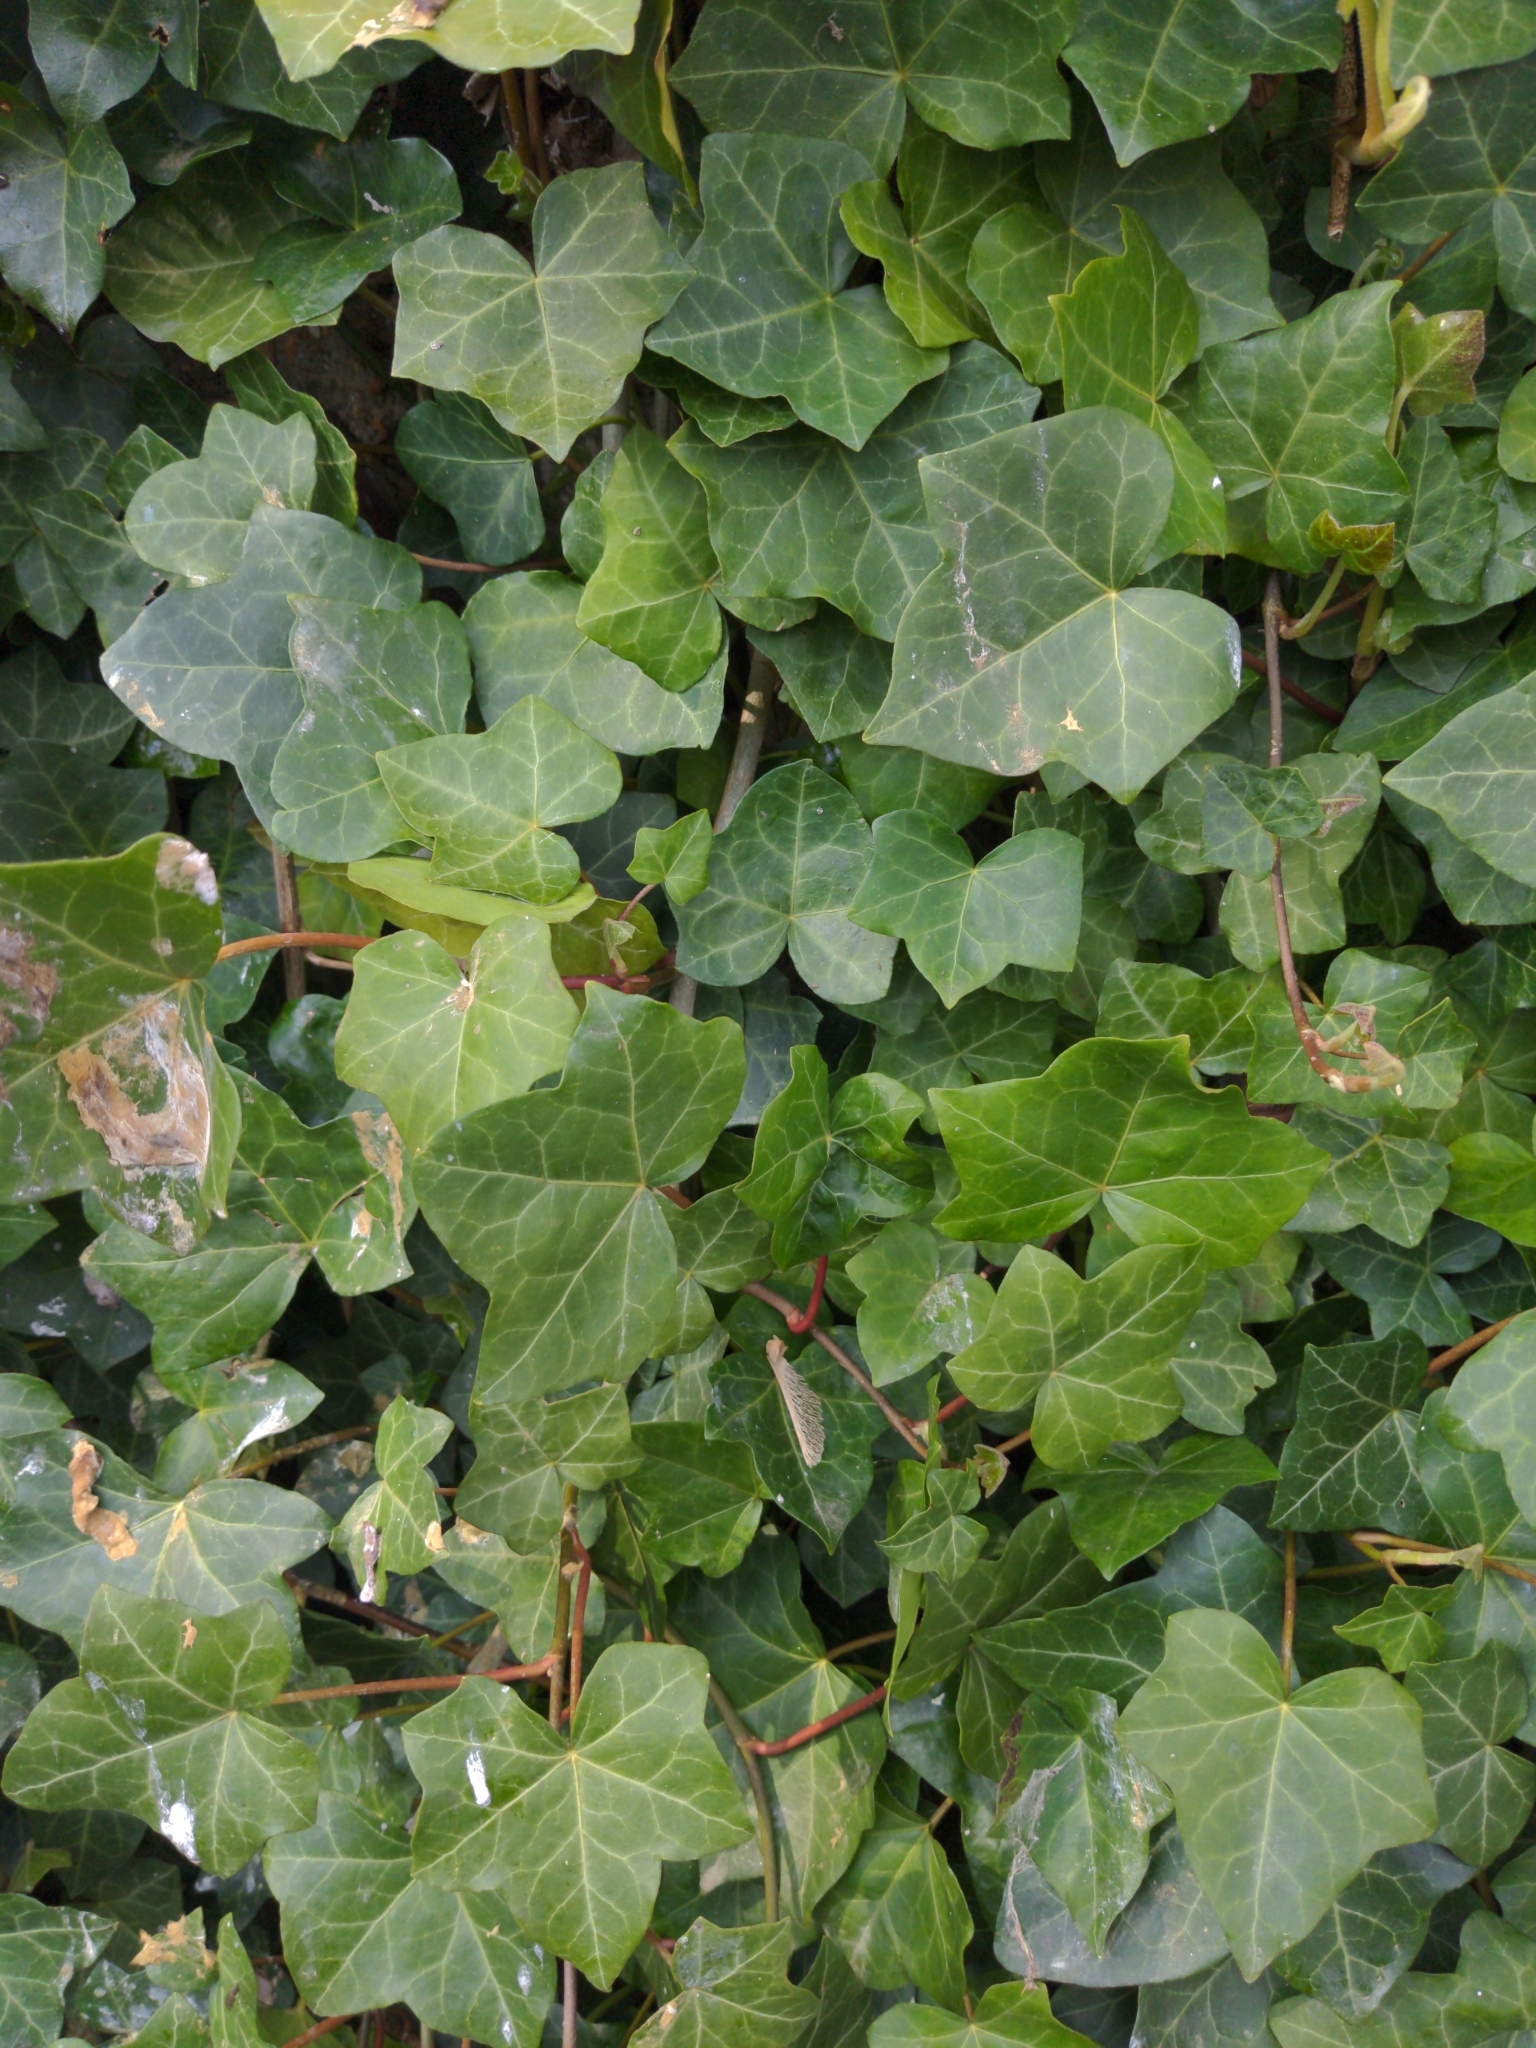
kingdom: Plantae
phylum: Tracheophyta
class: Magnoliopsida
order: Apiales
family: Araliaceae
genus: Hedera
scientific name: Hedera helix
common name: Ivy
